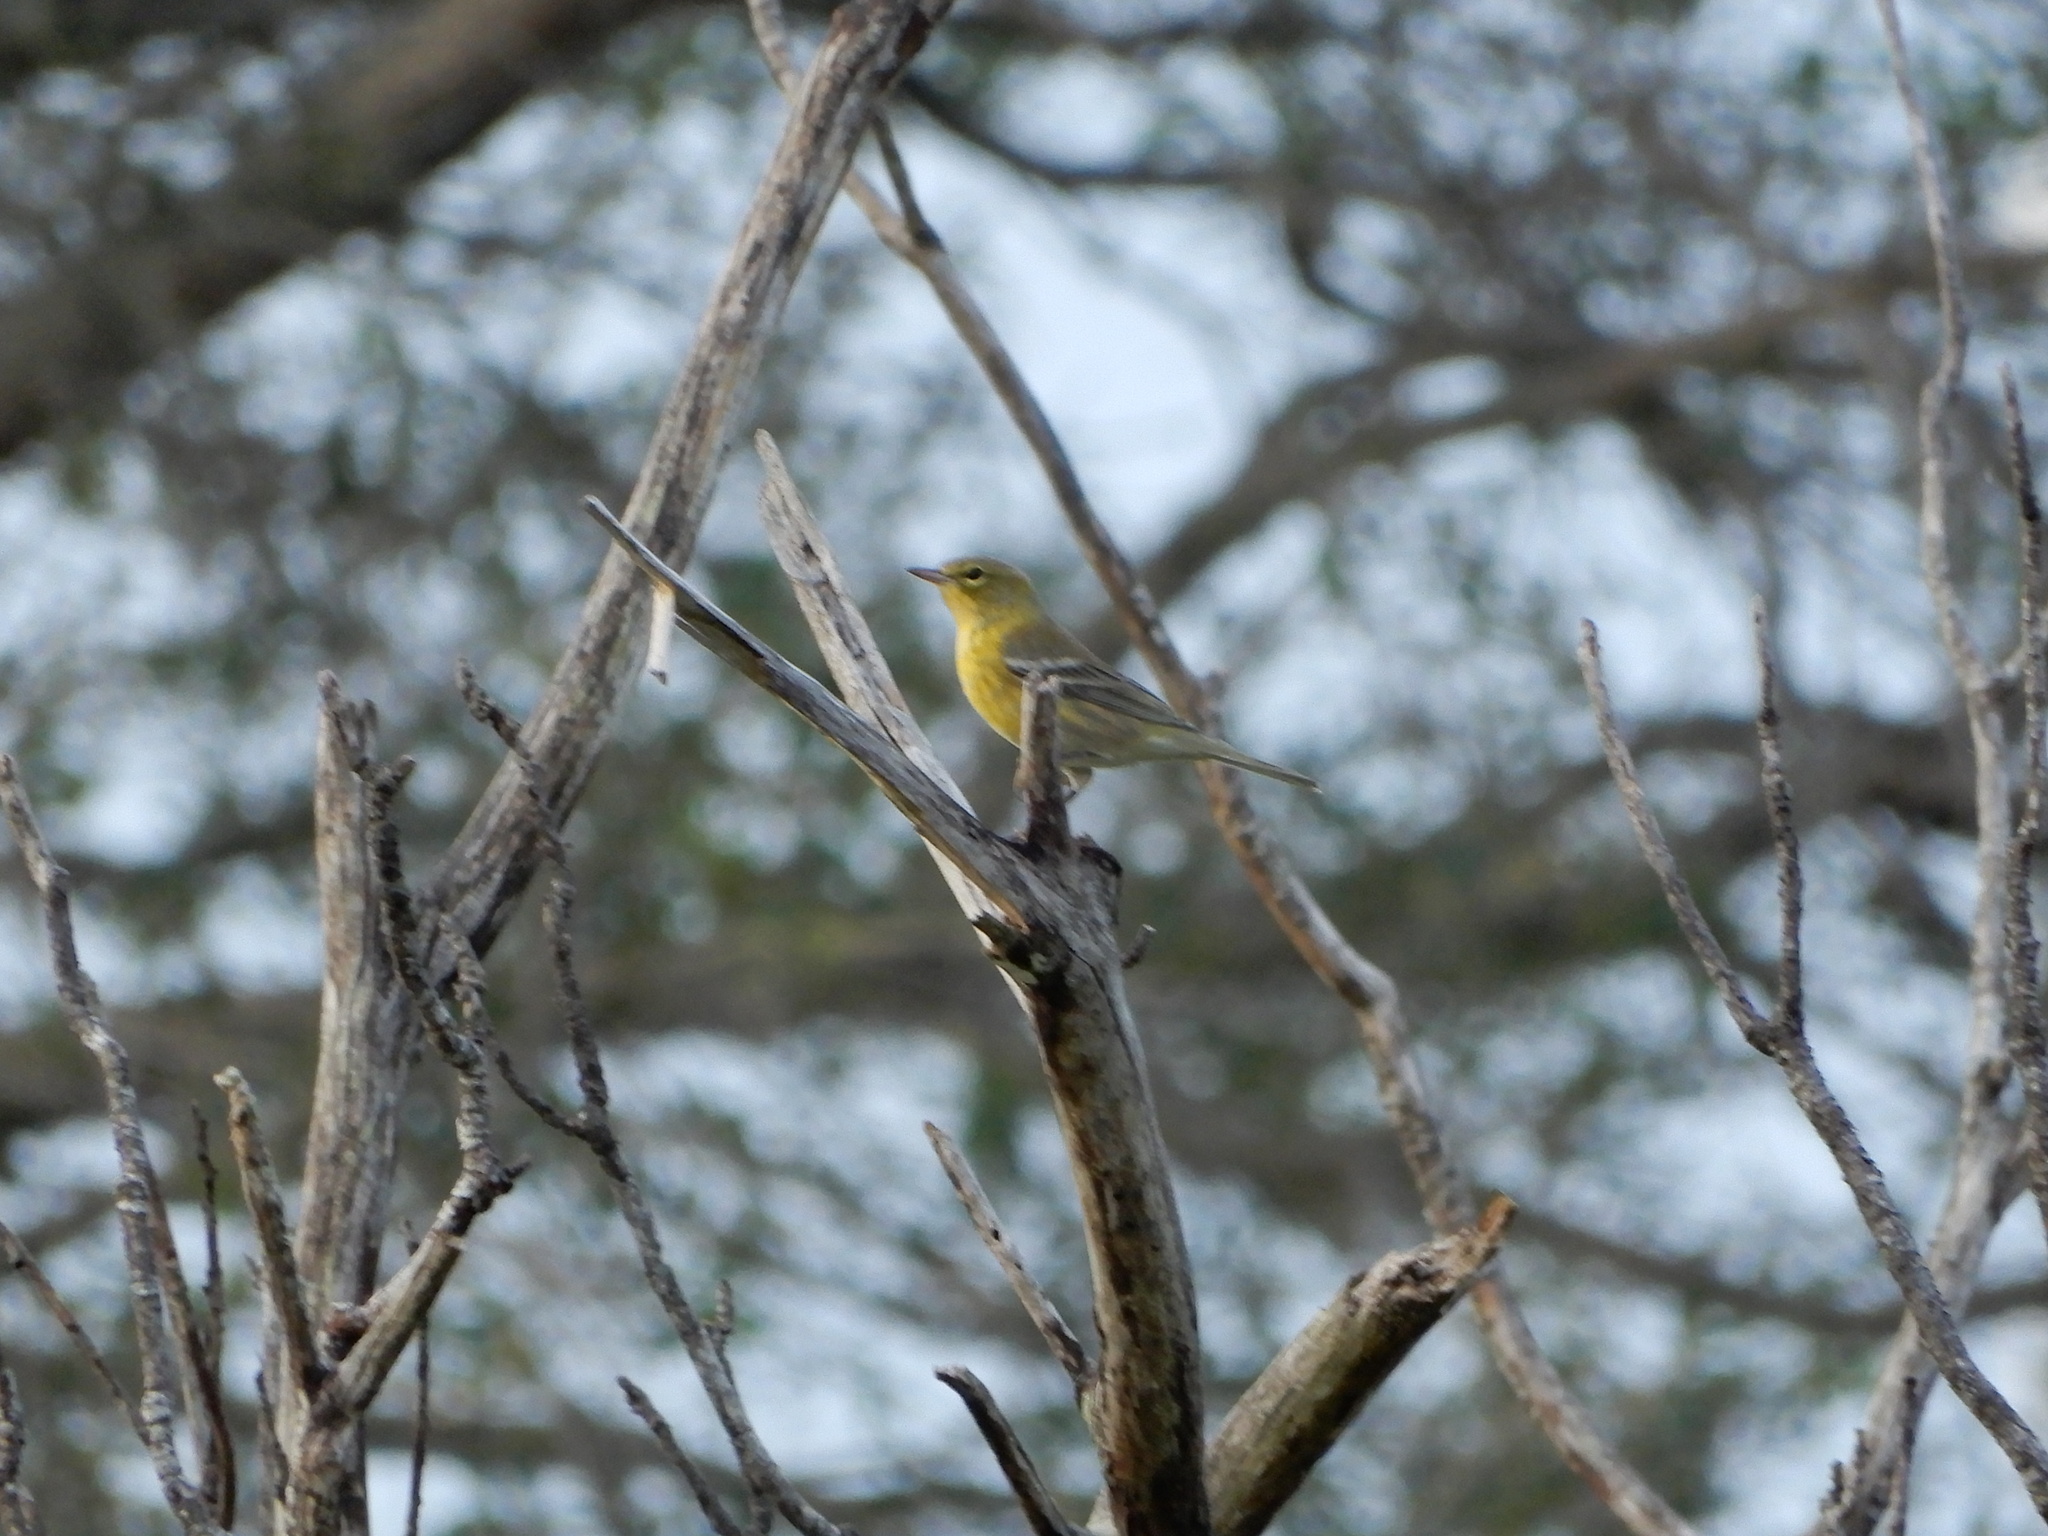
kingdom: Animalia
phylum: Chordata
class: Aves
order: Passeriformes
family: Parulidae
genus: Setophaga
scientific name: Setophaga pinus
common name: Pine warbler
